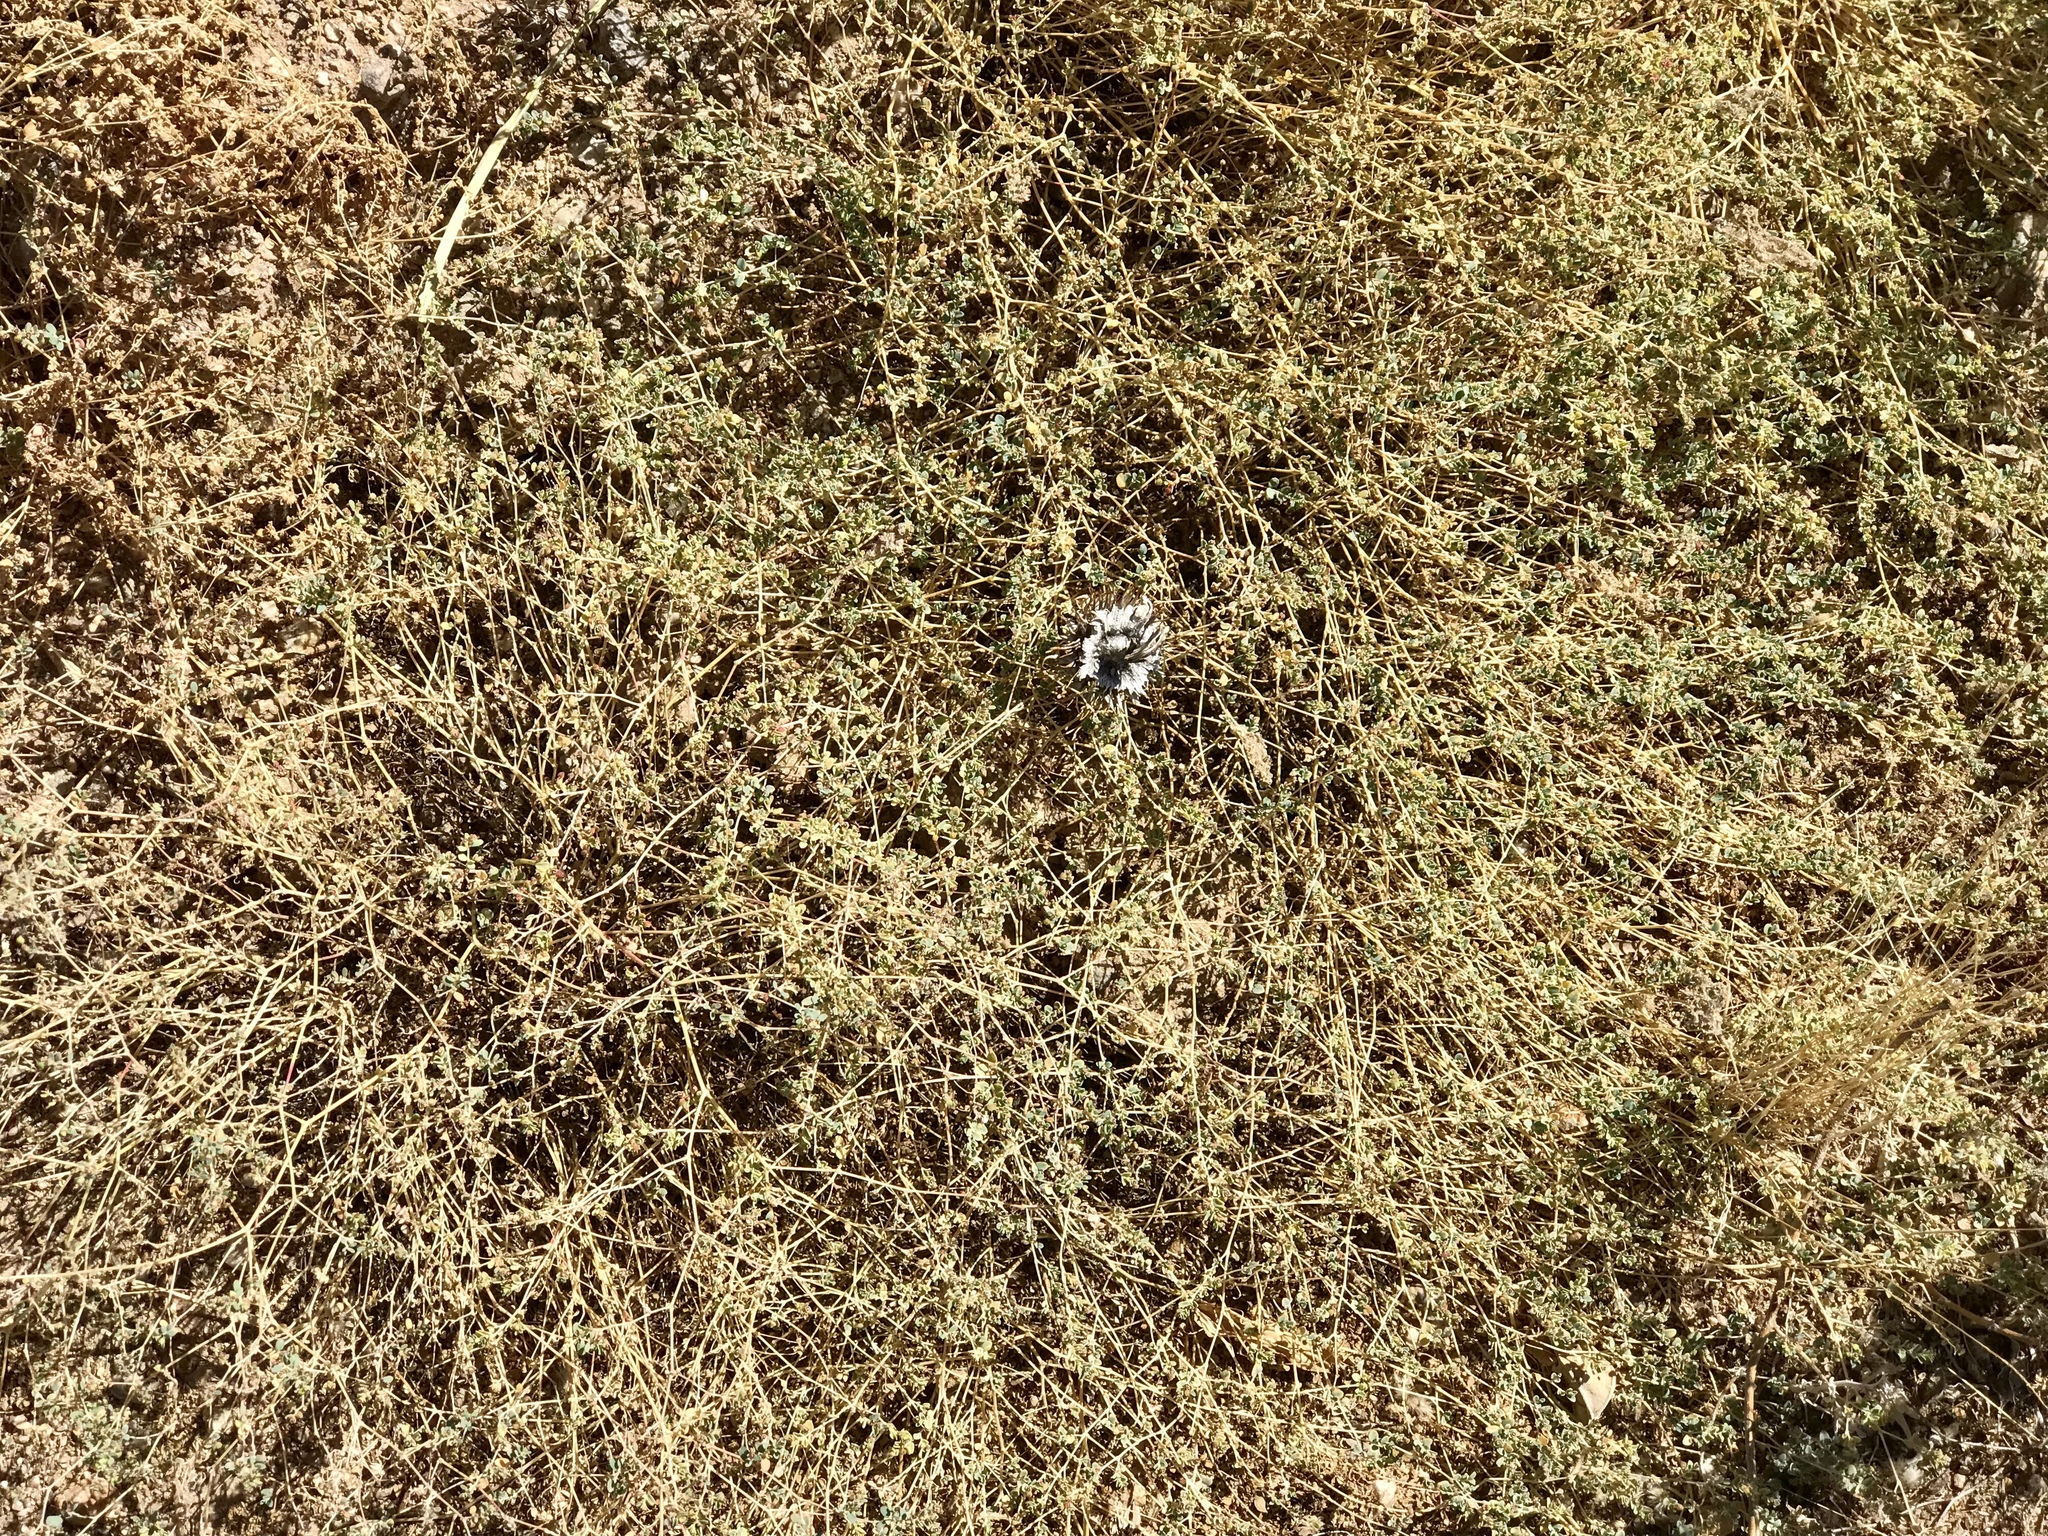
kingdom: Plantae
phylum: Tracheophyta
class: Magnoliopsida
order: Malpighiales
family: Euphorbiaceae
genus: Euphorbia
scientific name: Euphorbia polycarpa
